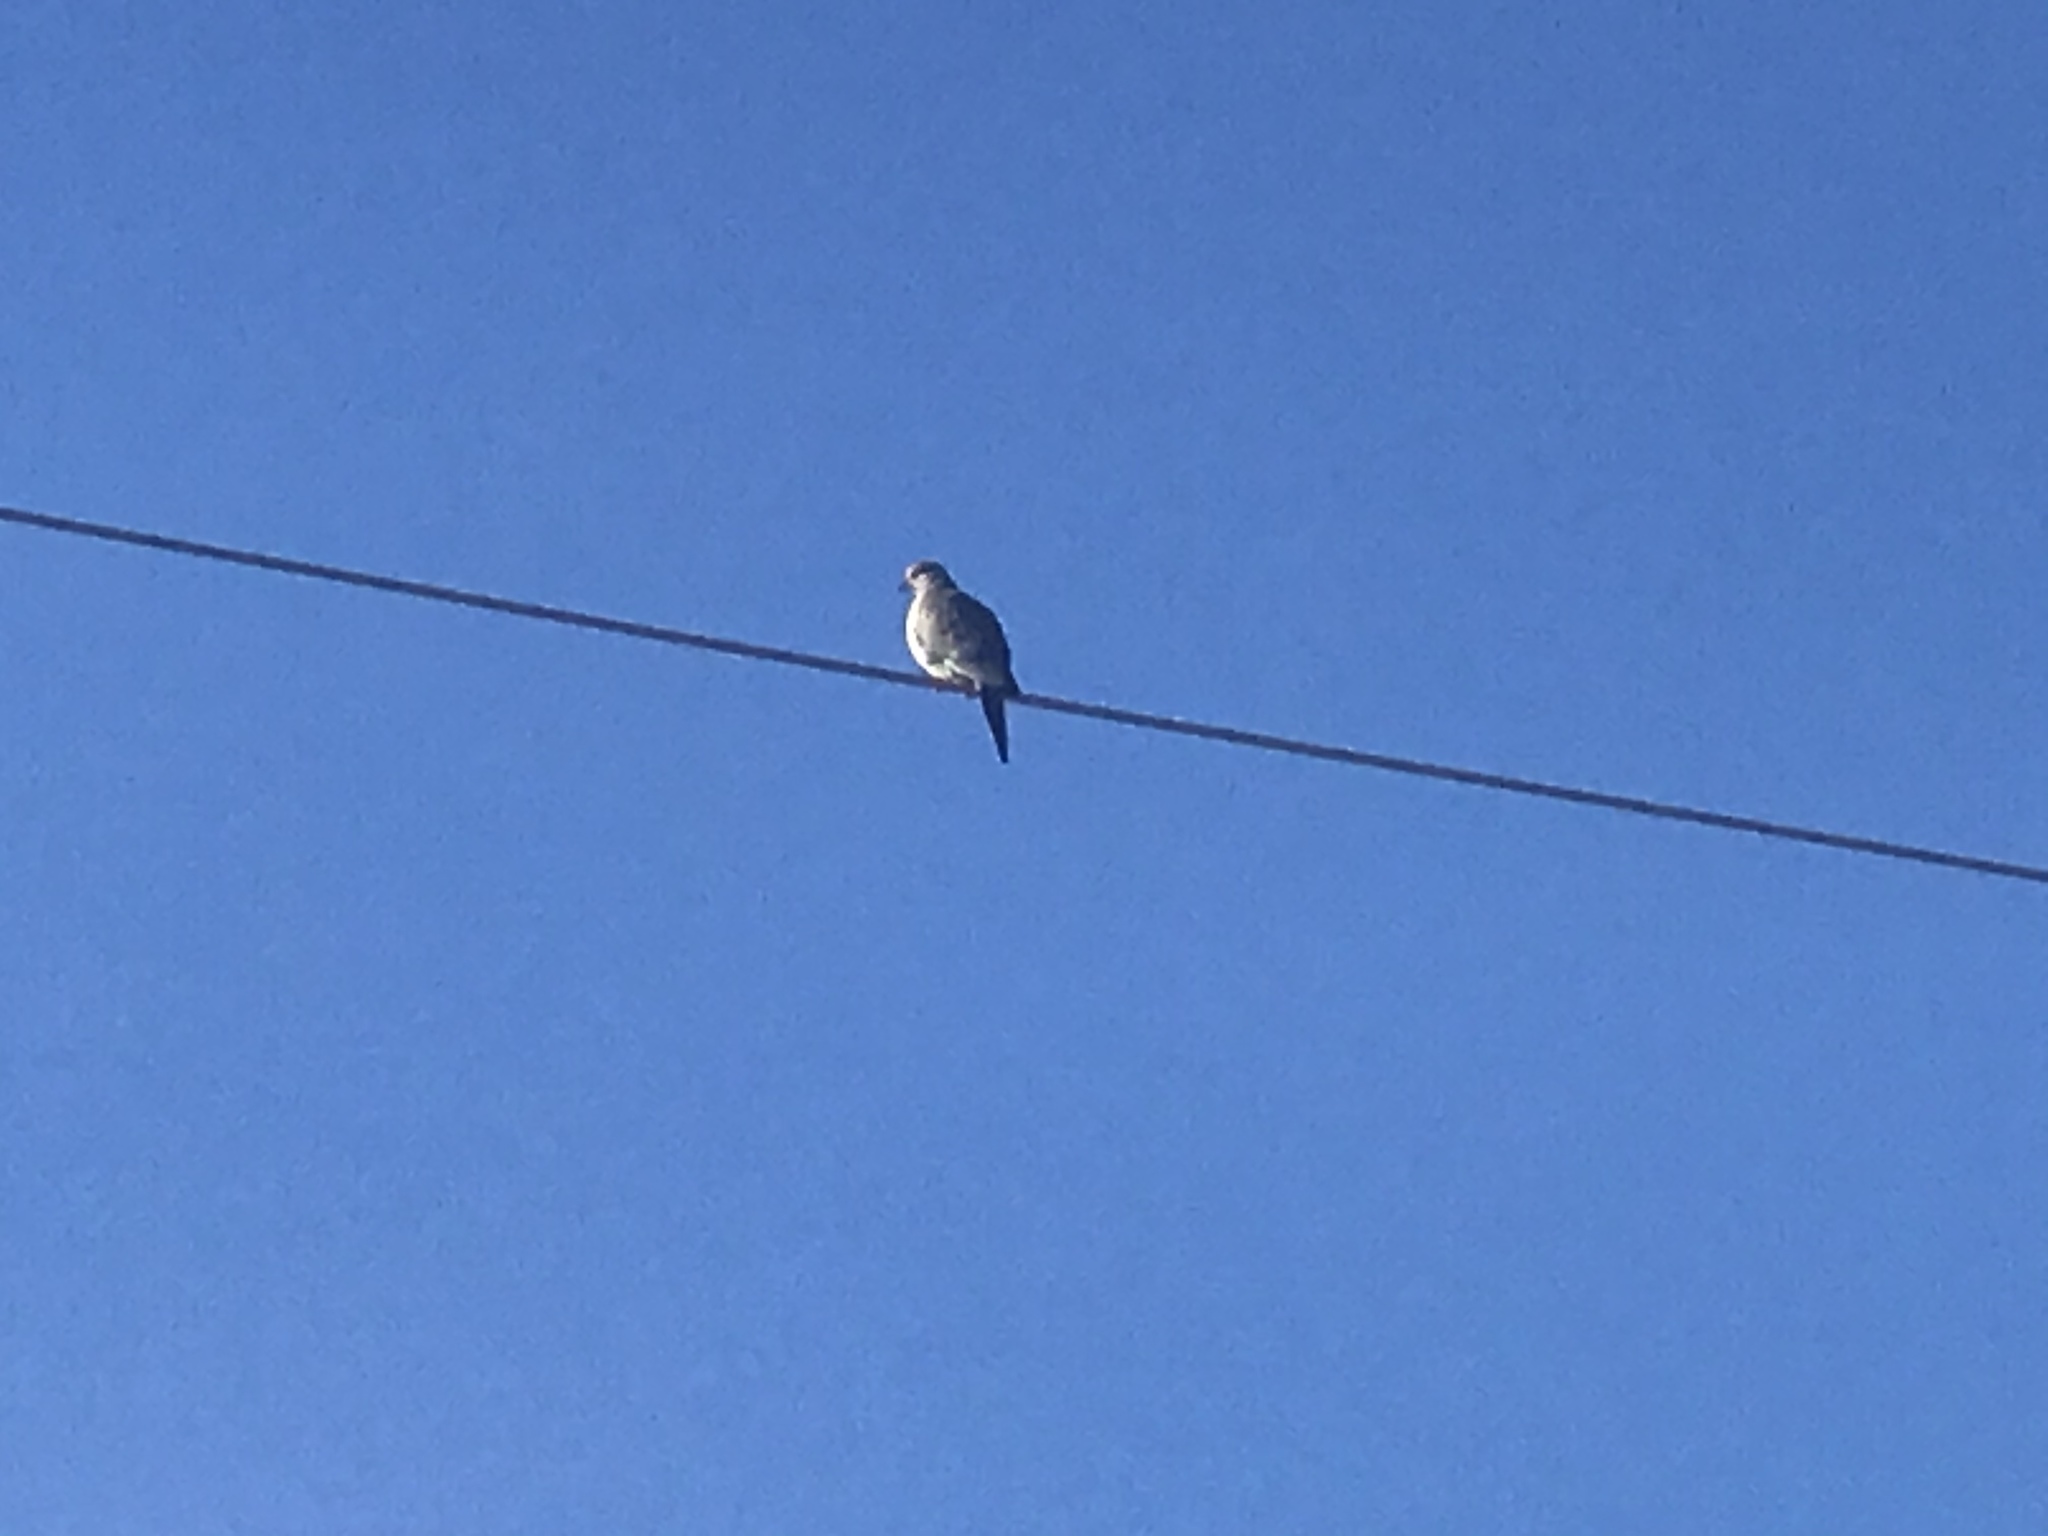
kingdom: Animalia
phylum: Chordata
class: Aves
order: Columbiformes
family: Columbidae
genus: Zenaida
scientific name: Zenaida macroura
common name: Mourning dove
